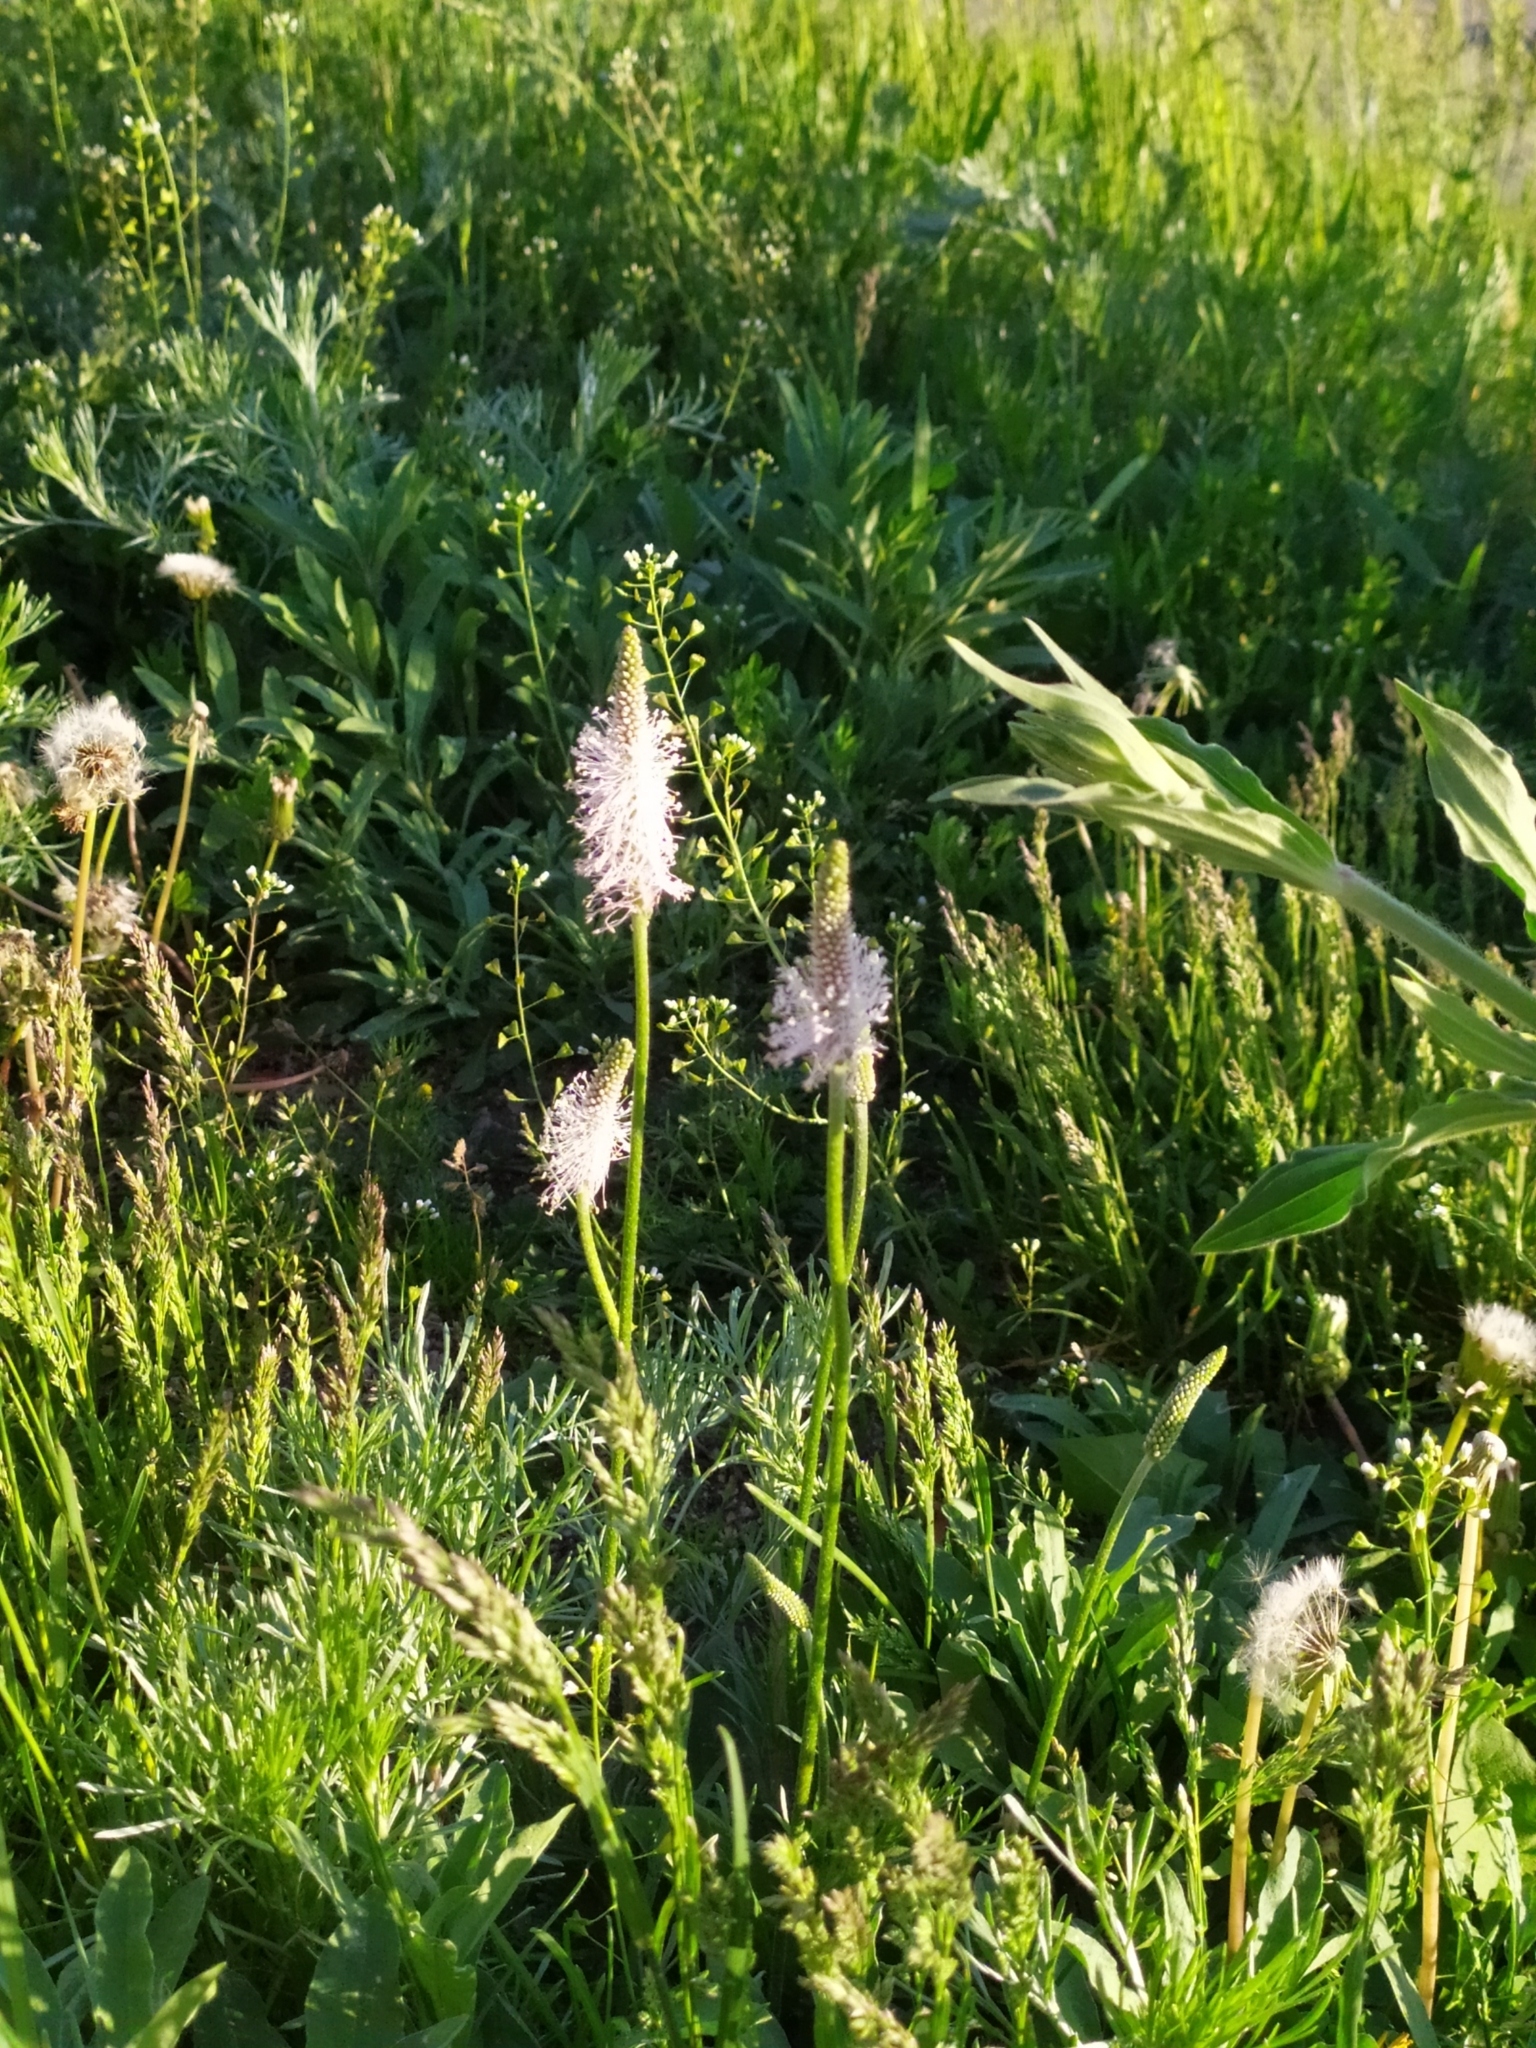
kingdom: Plantae
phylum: Tracheophyta
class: Magnoliopsida
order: Lamiales
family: Plantaginaceae
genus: Plantago
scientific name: Plantago media
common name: Hoary plantain
